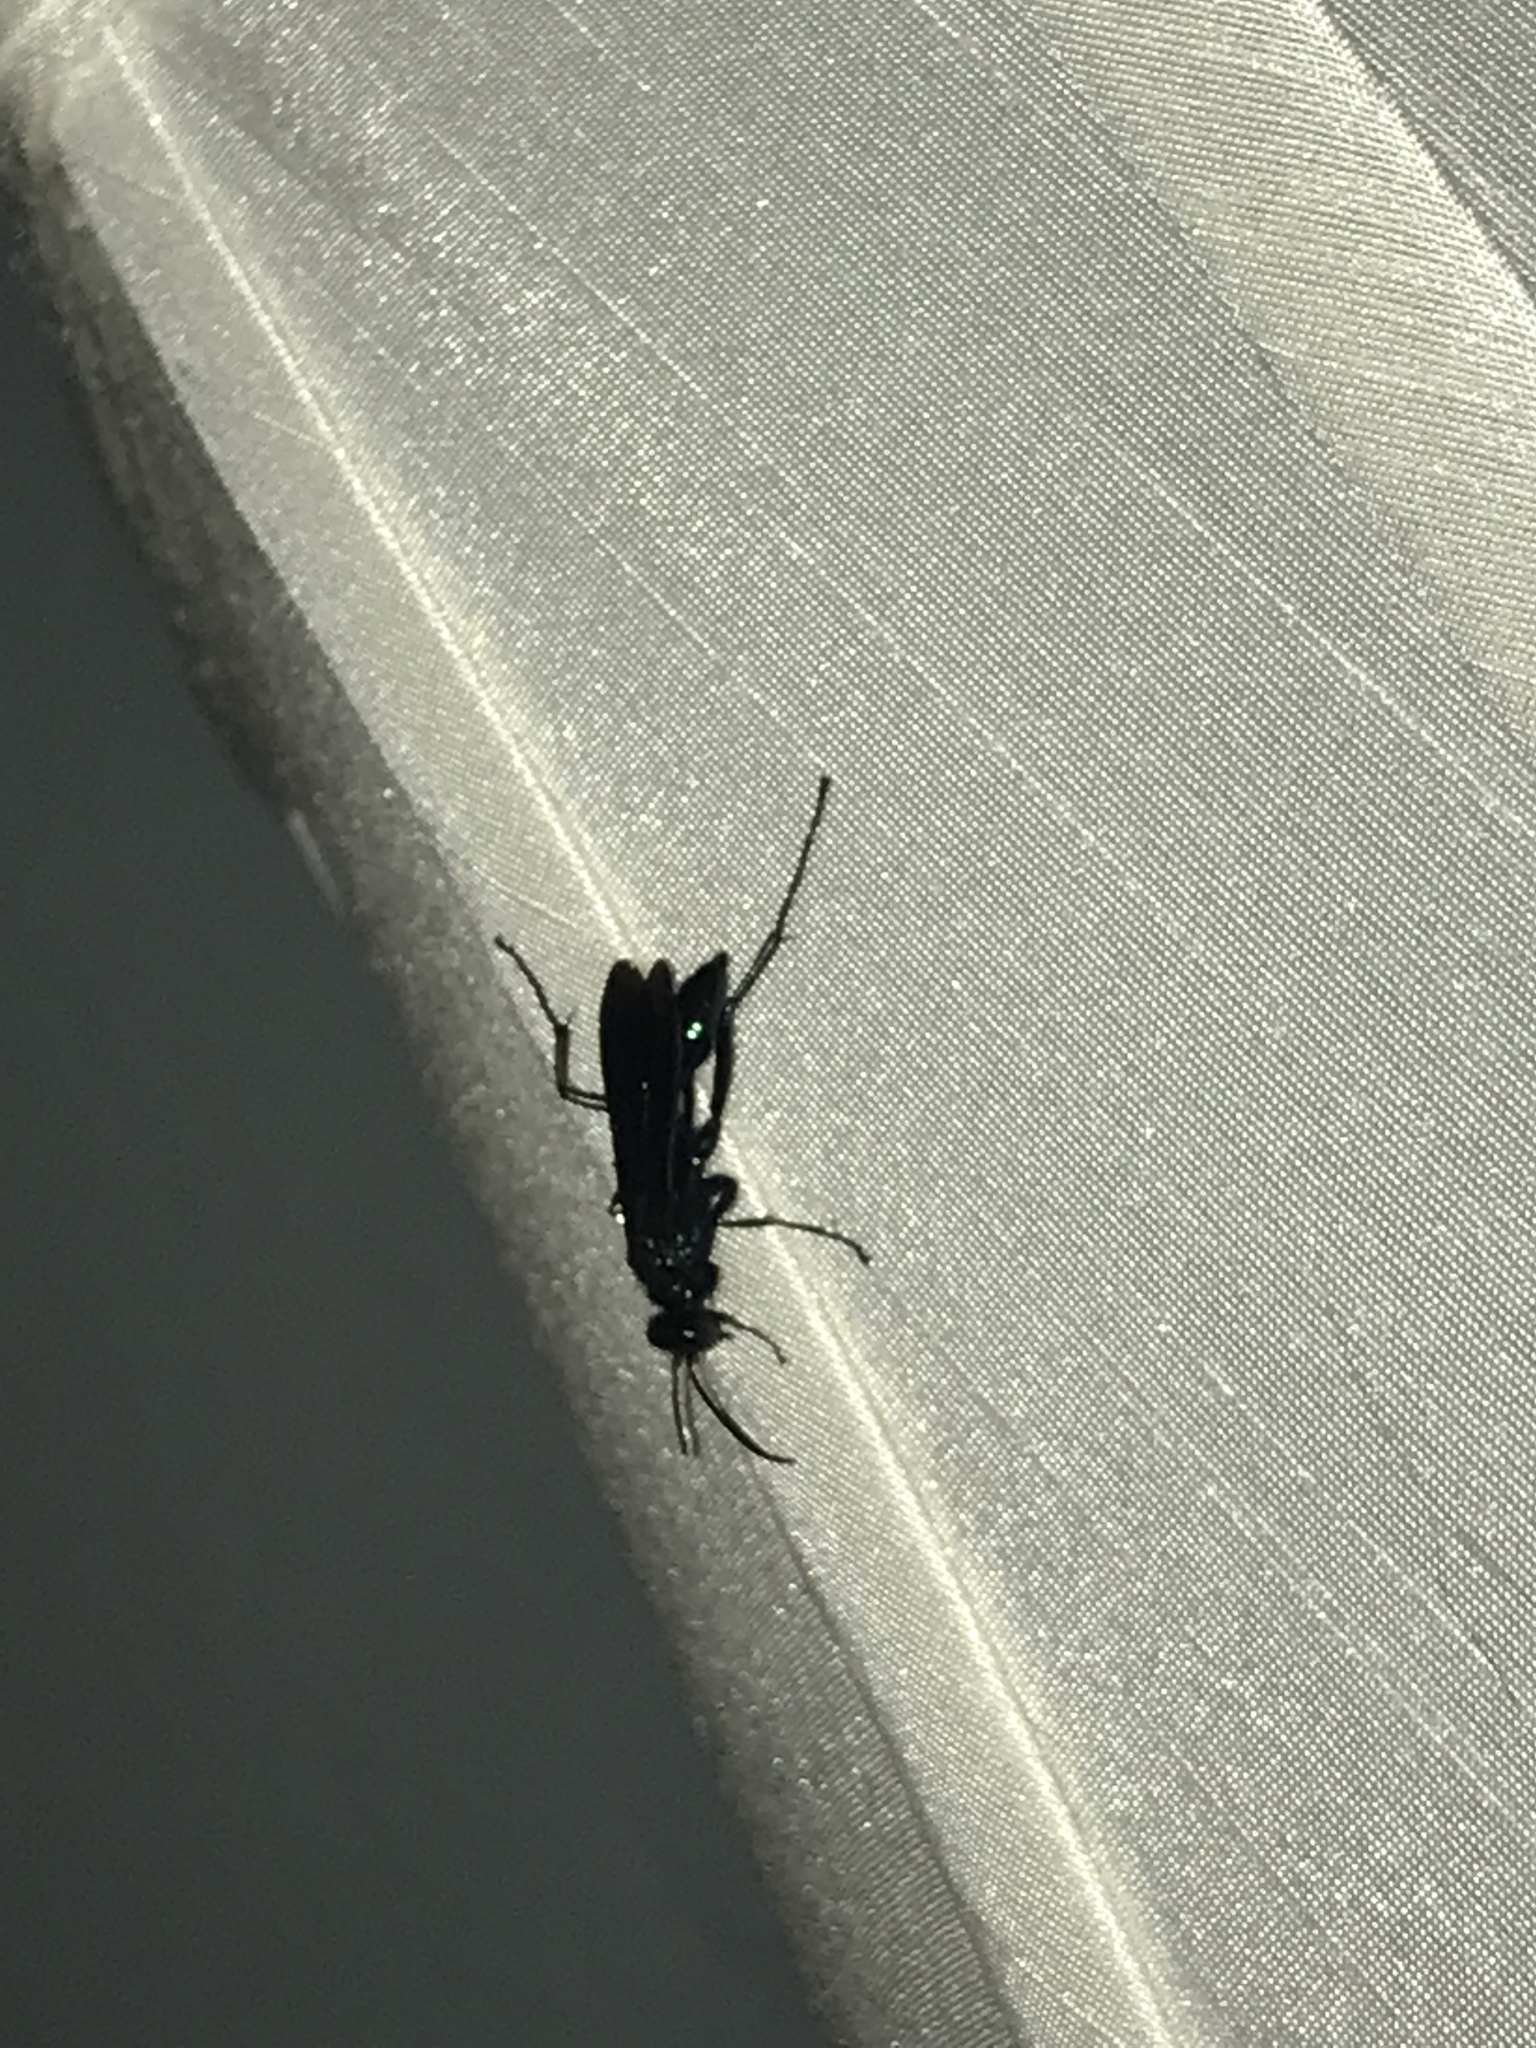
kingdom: Animalia
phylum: Arthropoda
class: Insecta
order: Hymenoptera
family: Sphecidae
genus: Chalybion
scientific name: Chalybion californicum
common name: Mud dauber
